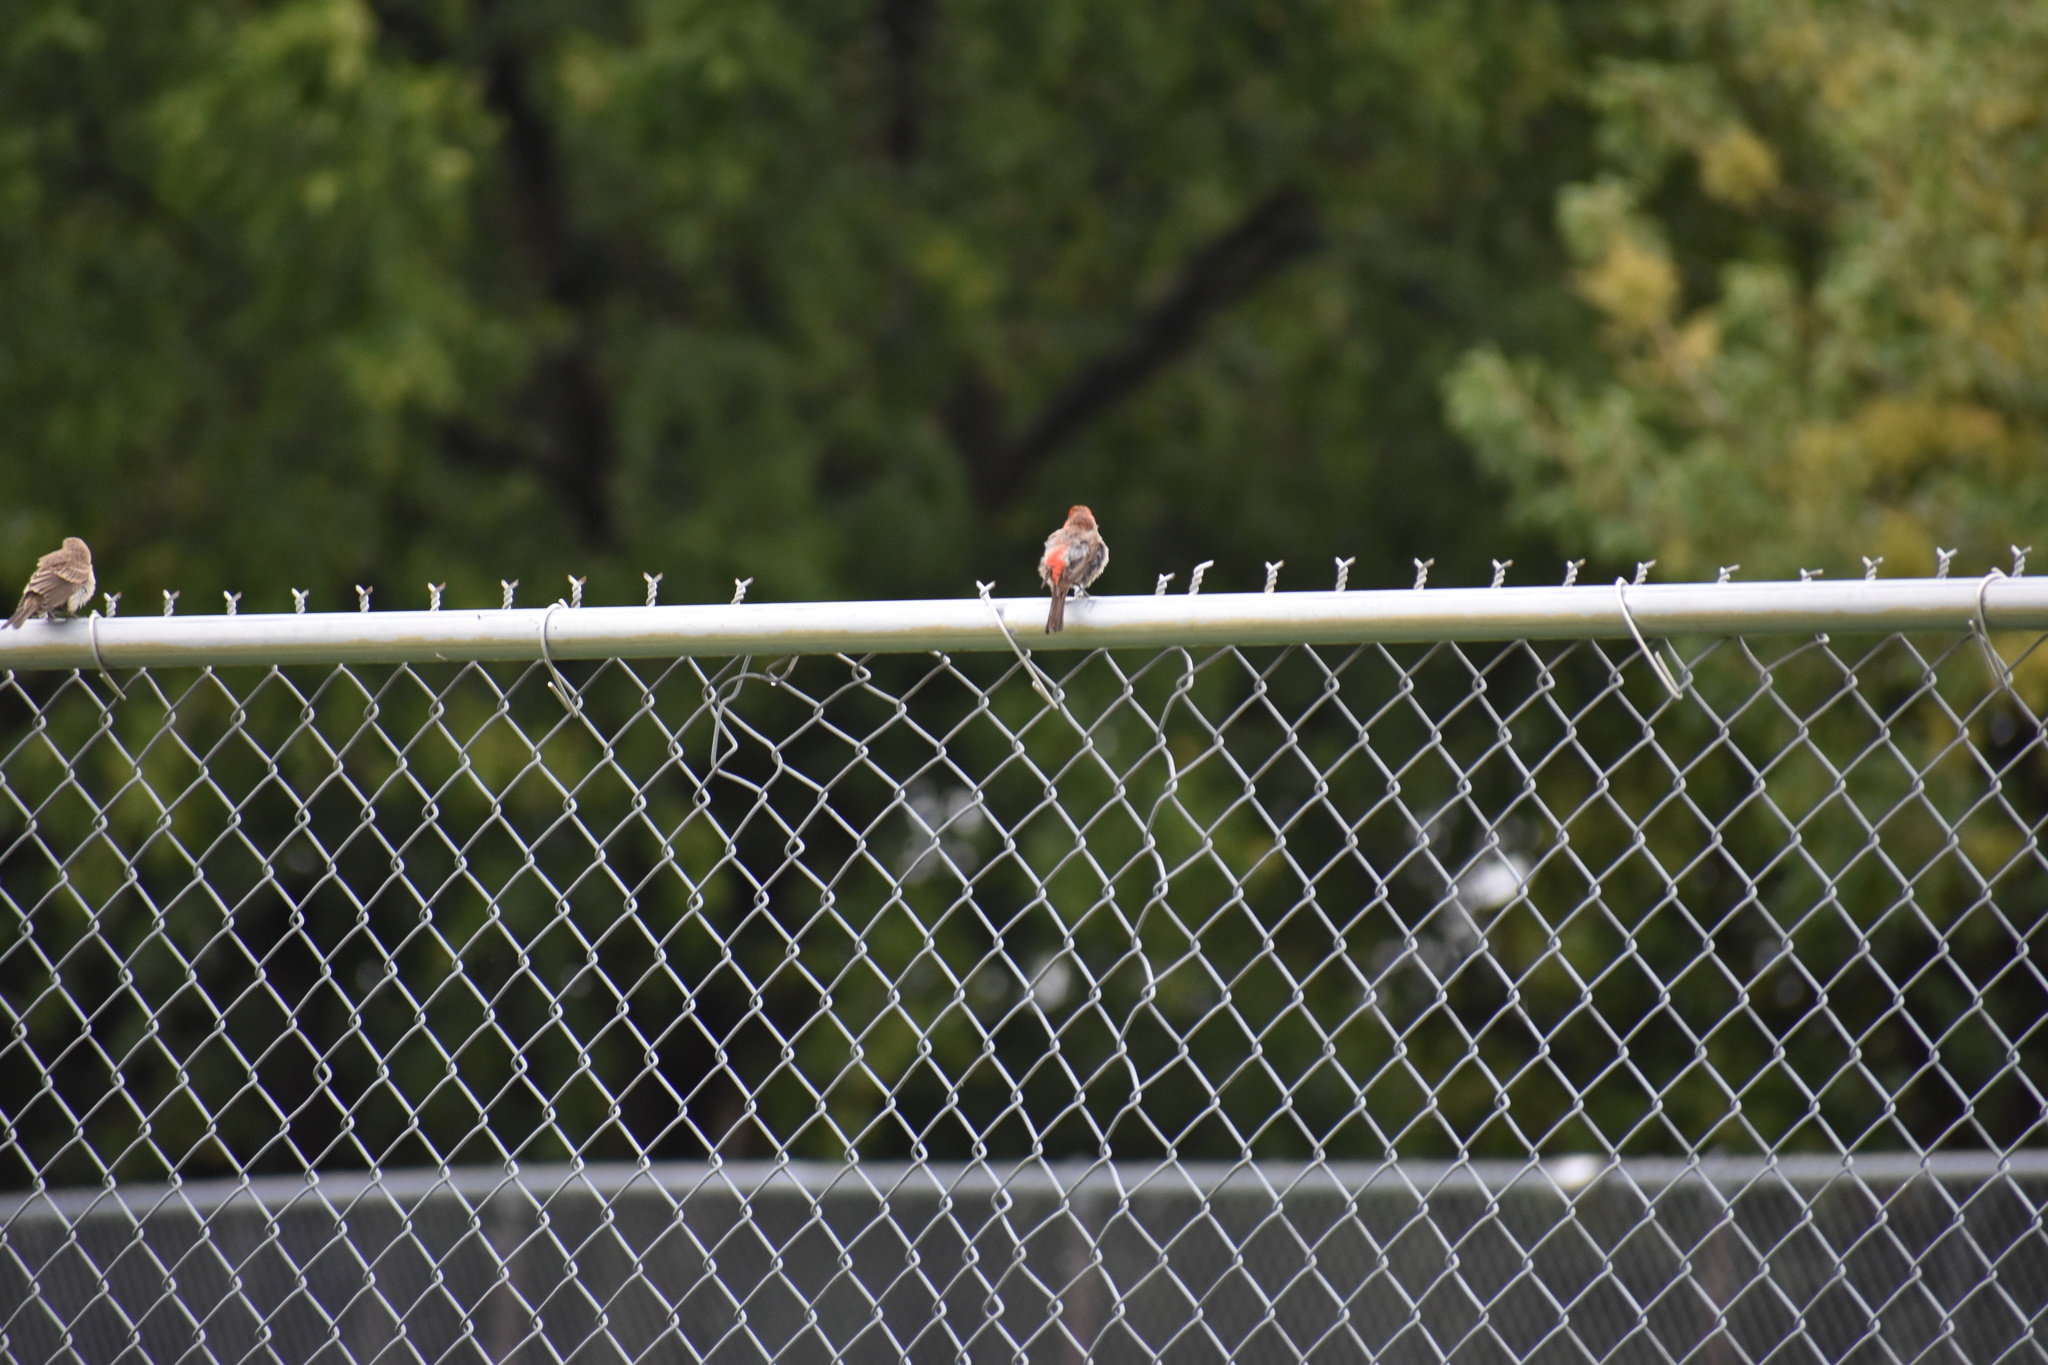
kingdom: Animalia
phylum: Chordata
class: Aves
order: Passeriformes
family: Fringillidae
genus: Haemorhous
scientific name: Haemorhous mexicanus
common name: House finch
